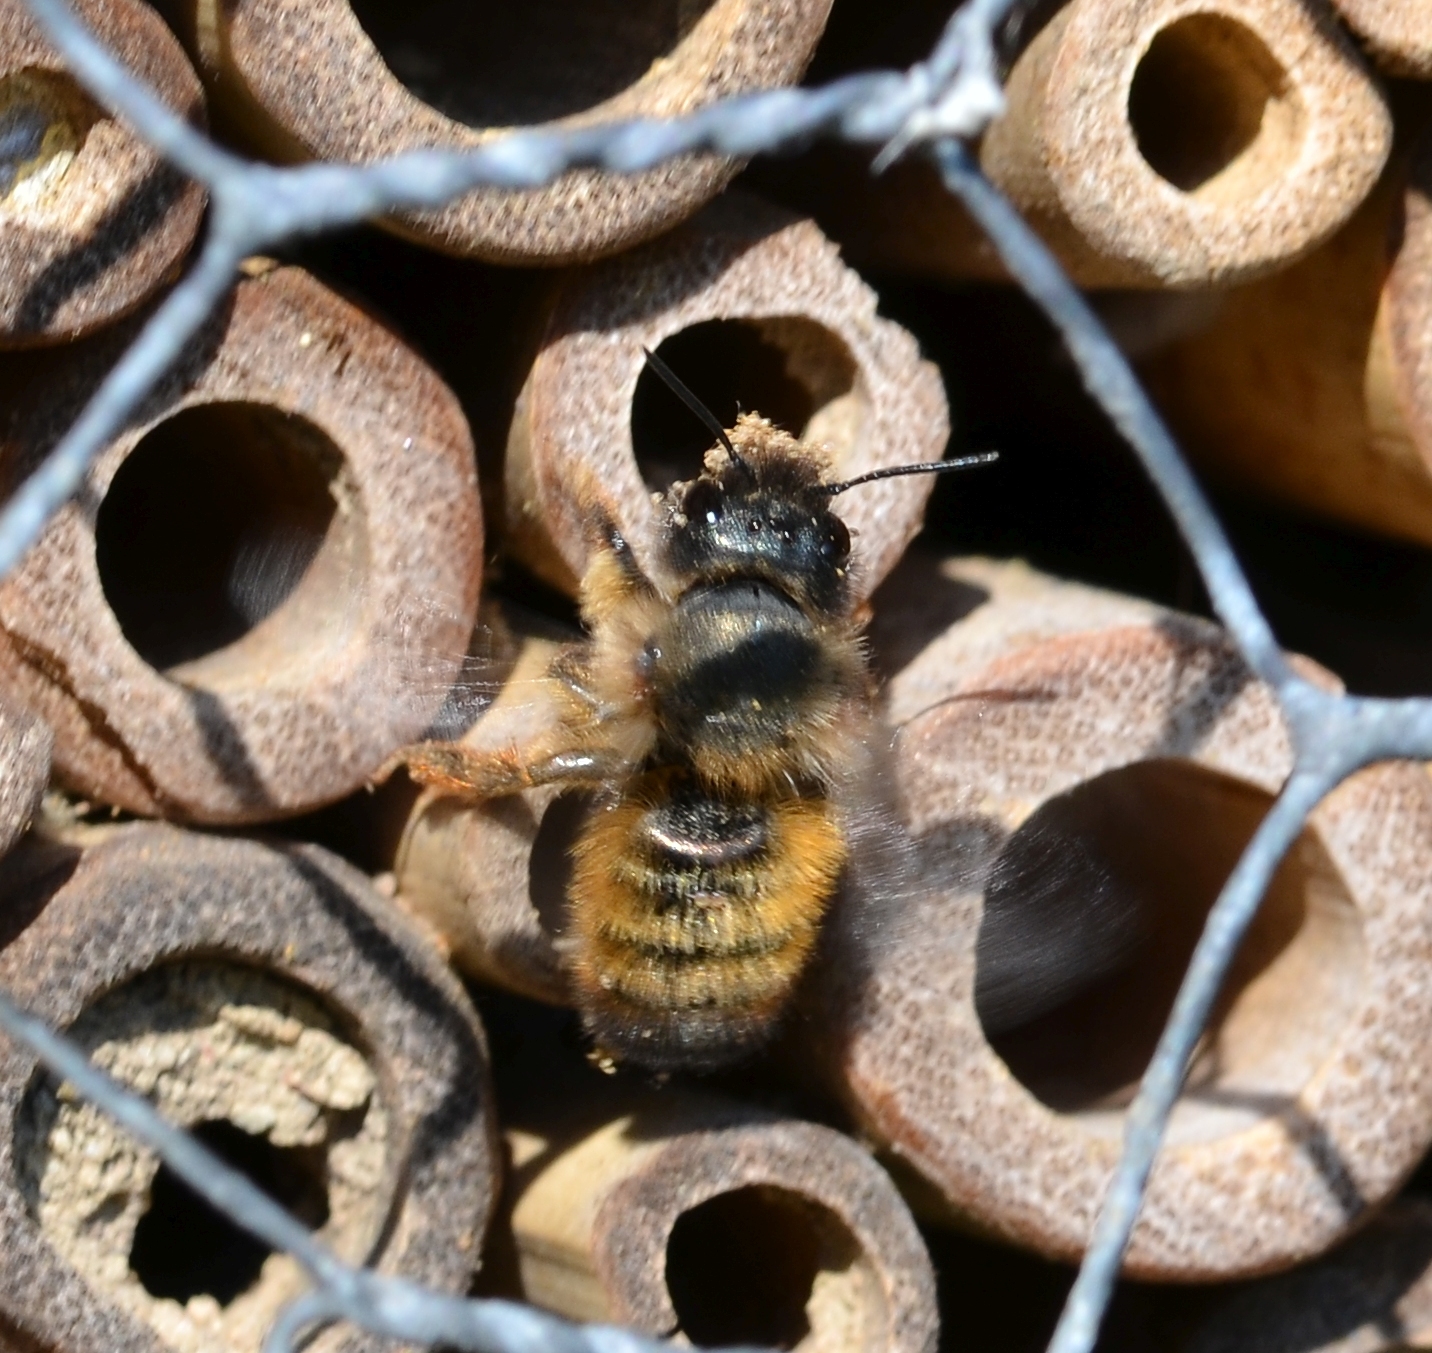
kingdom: Animalia
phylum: Arthropoda
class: Insecta
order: Hymenoptera
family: Megachilidae
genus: Osmia
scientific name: Osmia bicornis
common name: Red mason bee
